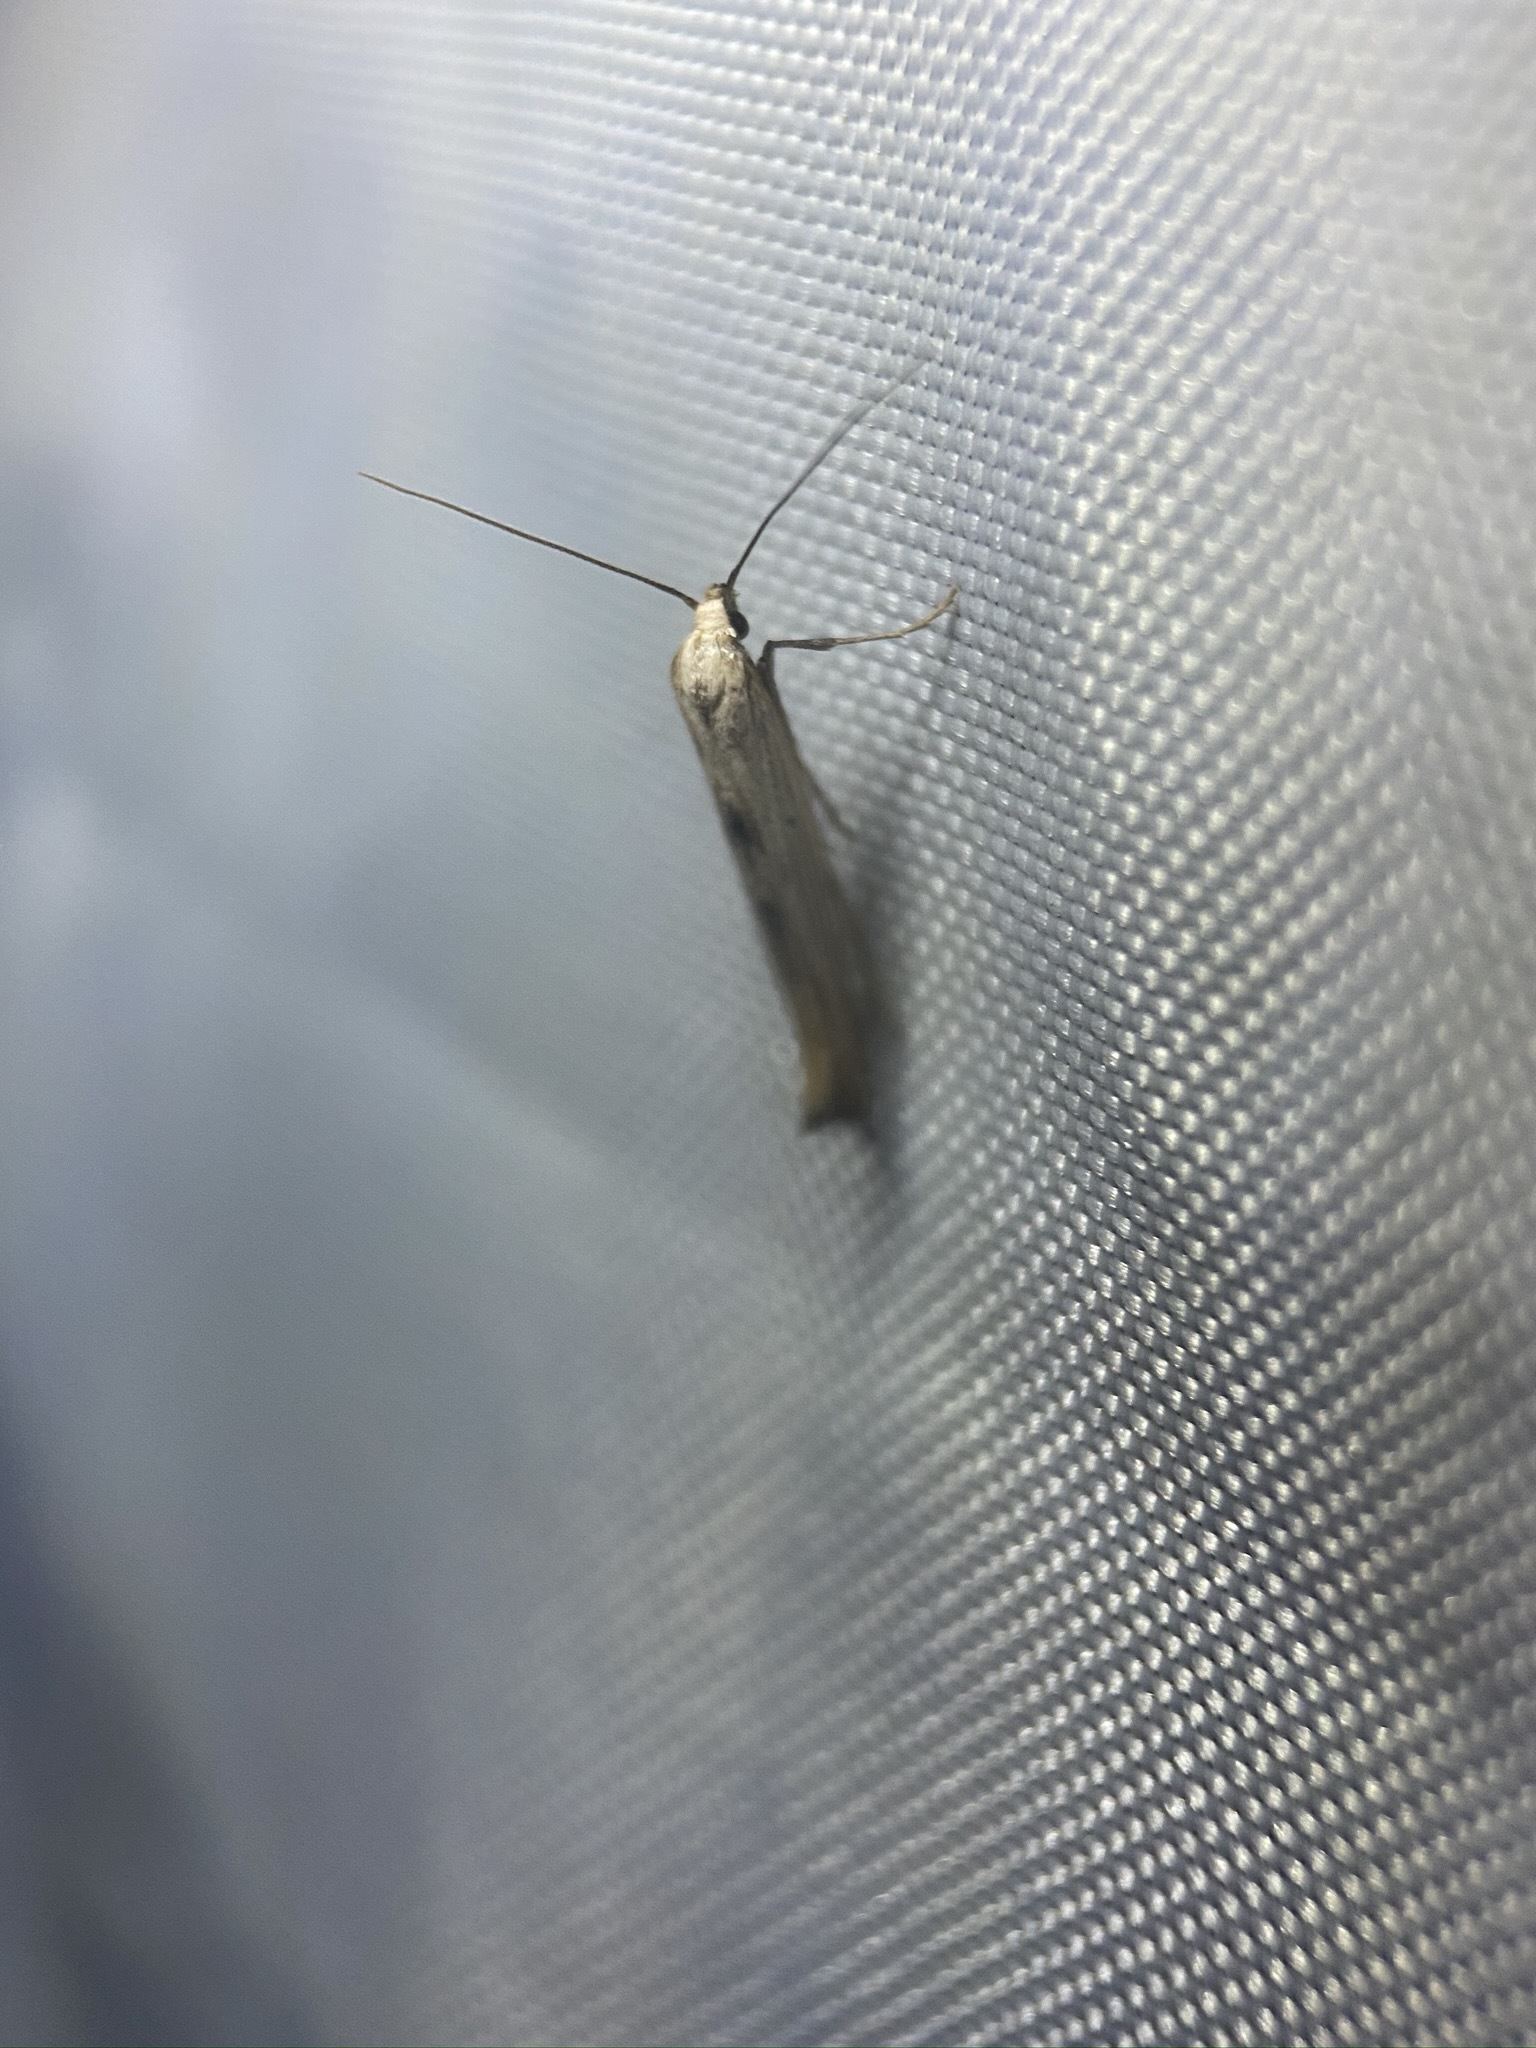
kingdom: Animalia
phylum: Arthropoda
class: Insecta
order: Lepidoptera
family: Epermeniidae
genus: Epermenia
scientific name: Epermenia stolidota
